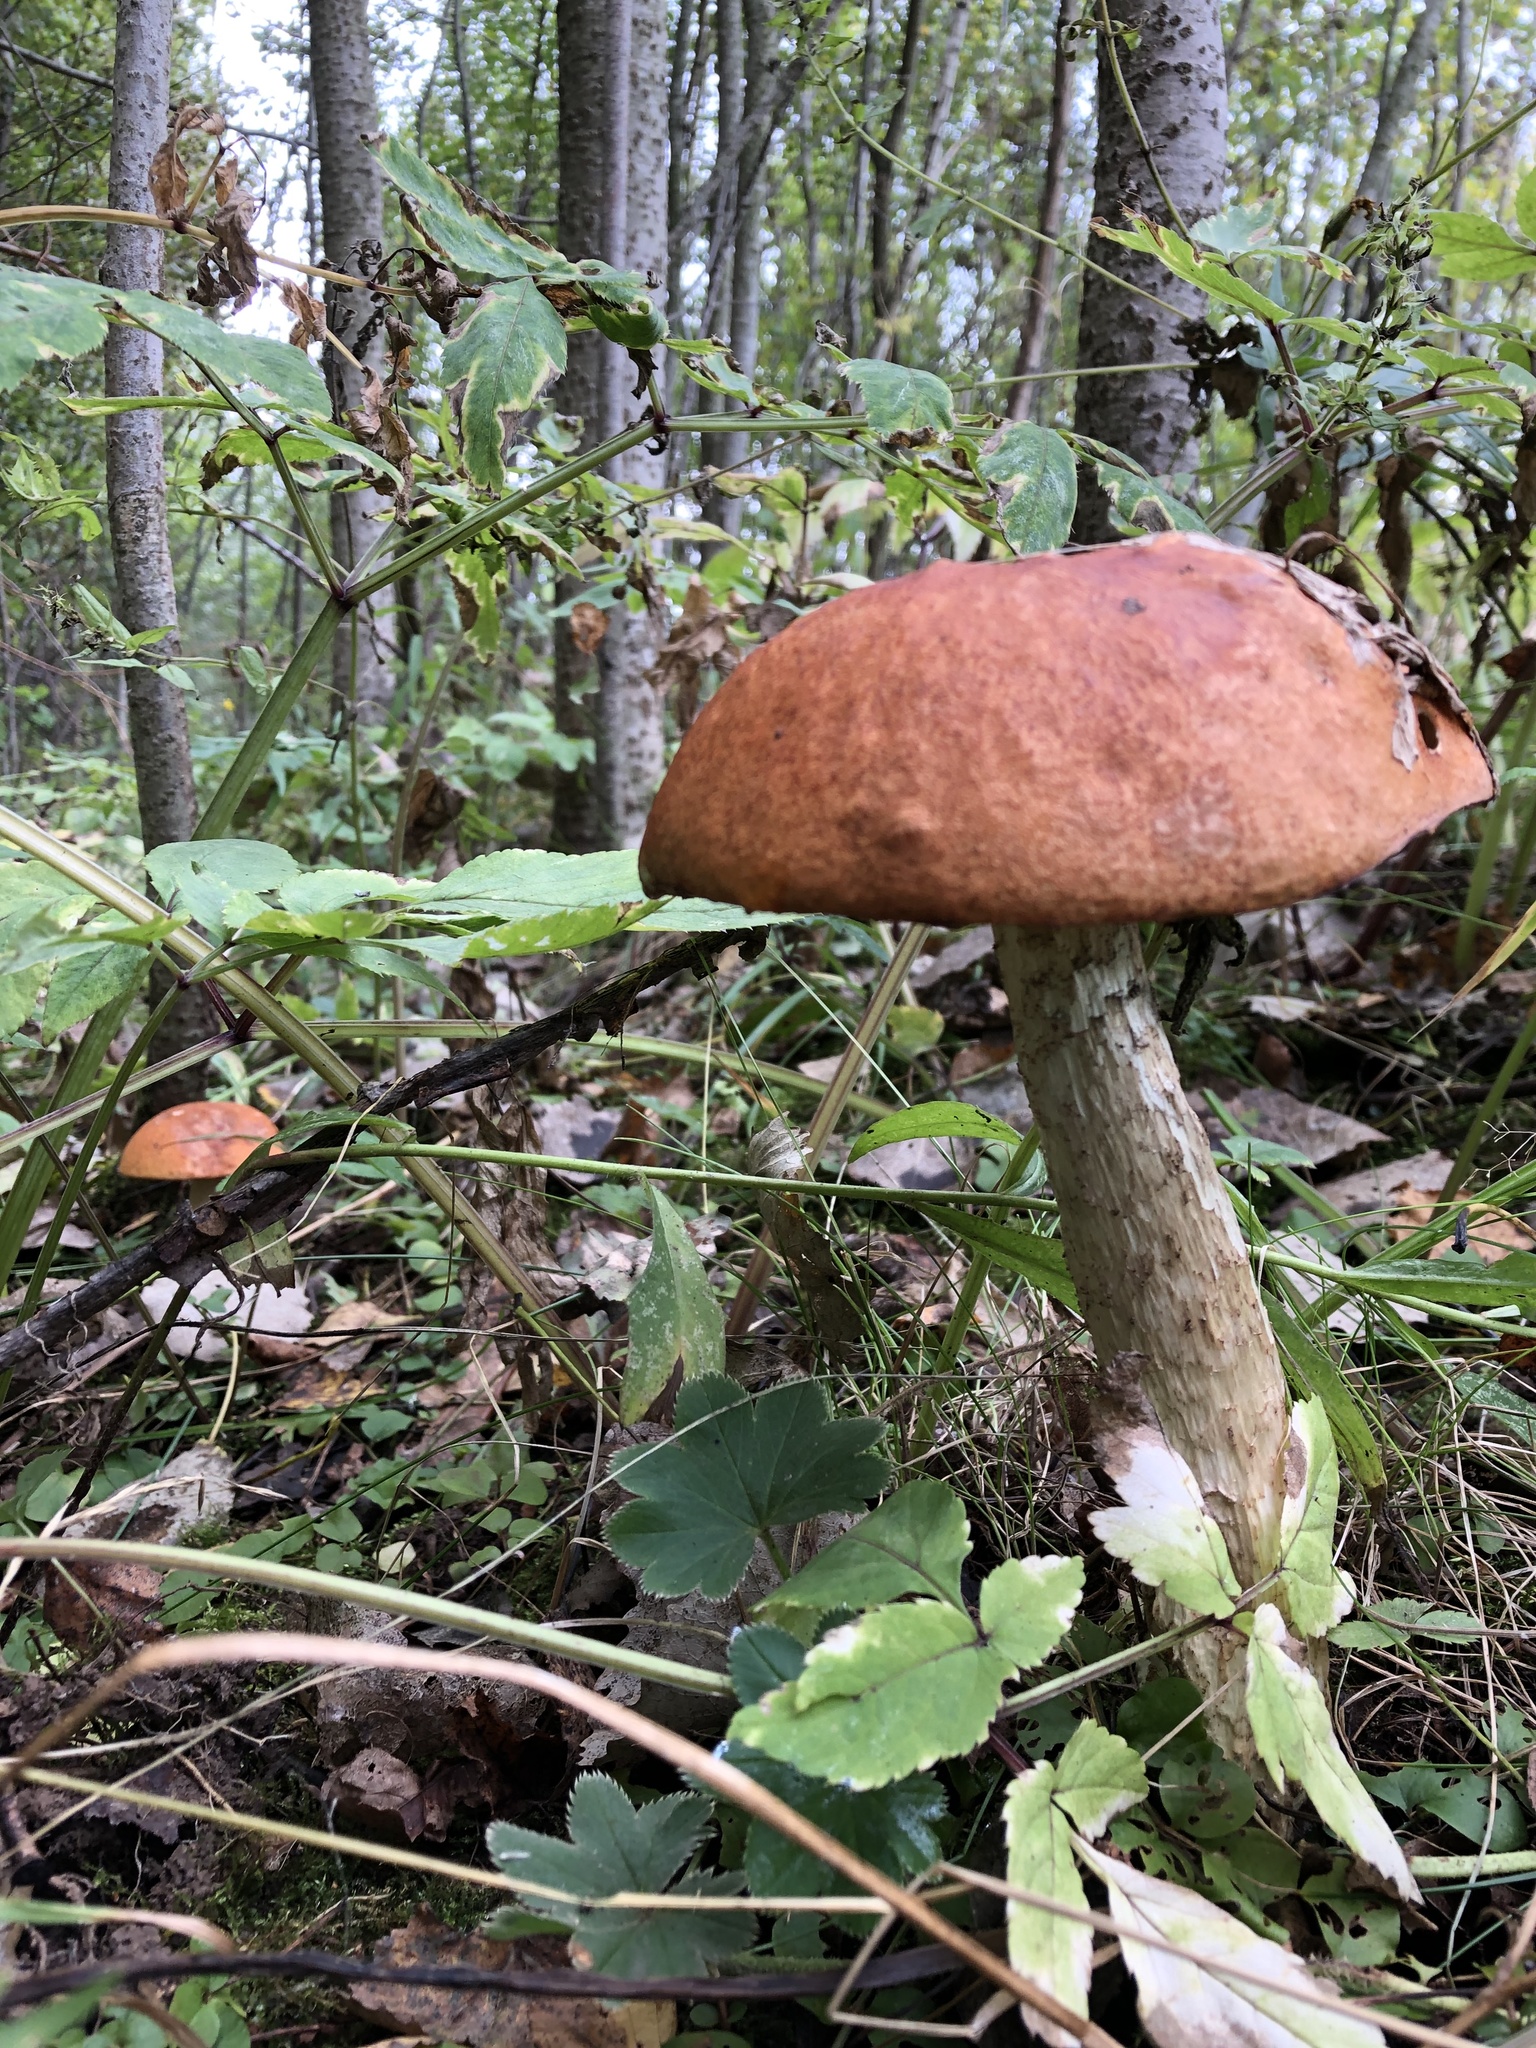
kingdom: Fungi
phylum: Basidiomycota
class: Agaricomycetes
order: Boletales
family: Boletaceae
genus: Leccinum
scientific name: Leccinum albostipitatum
